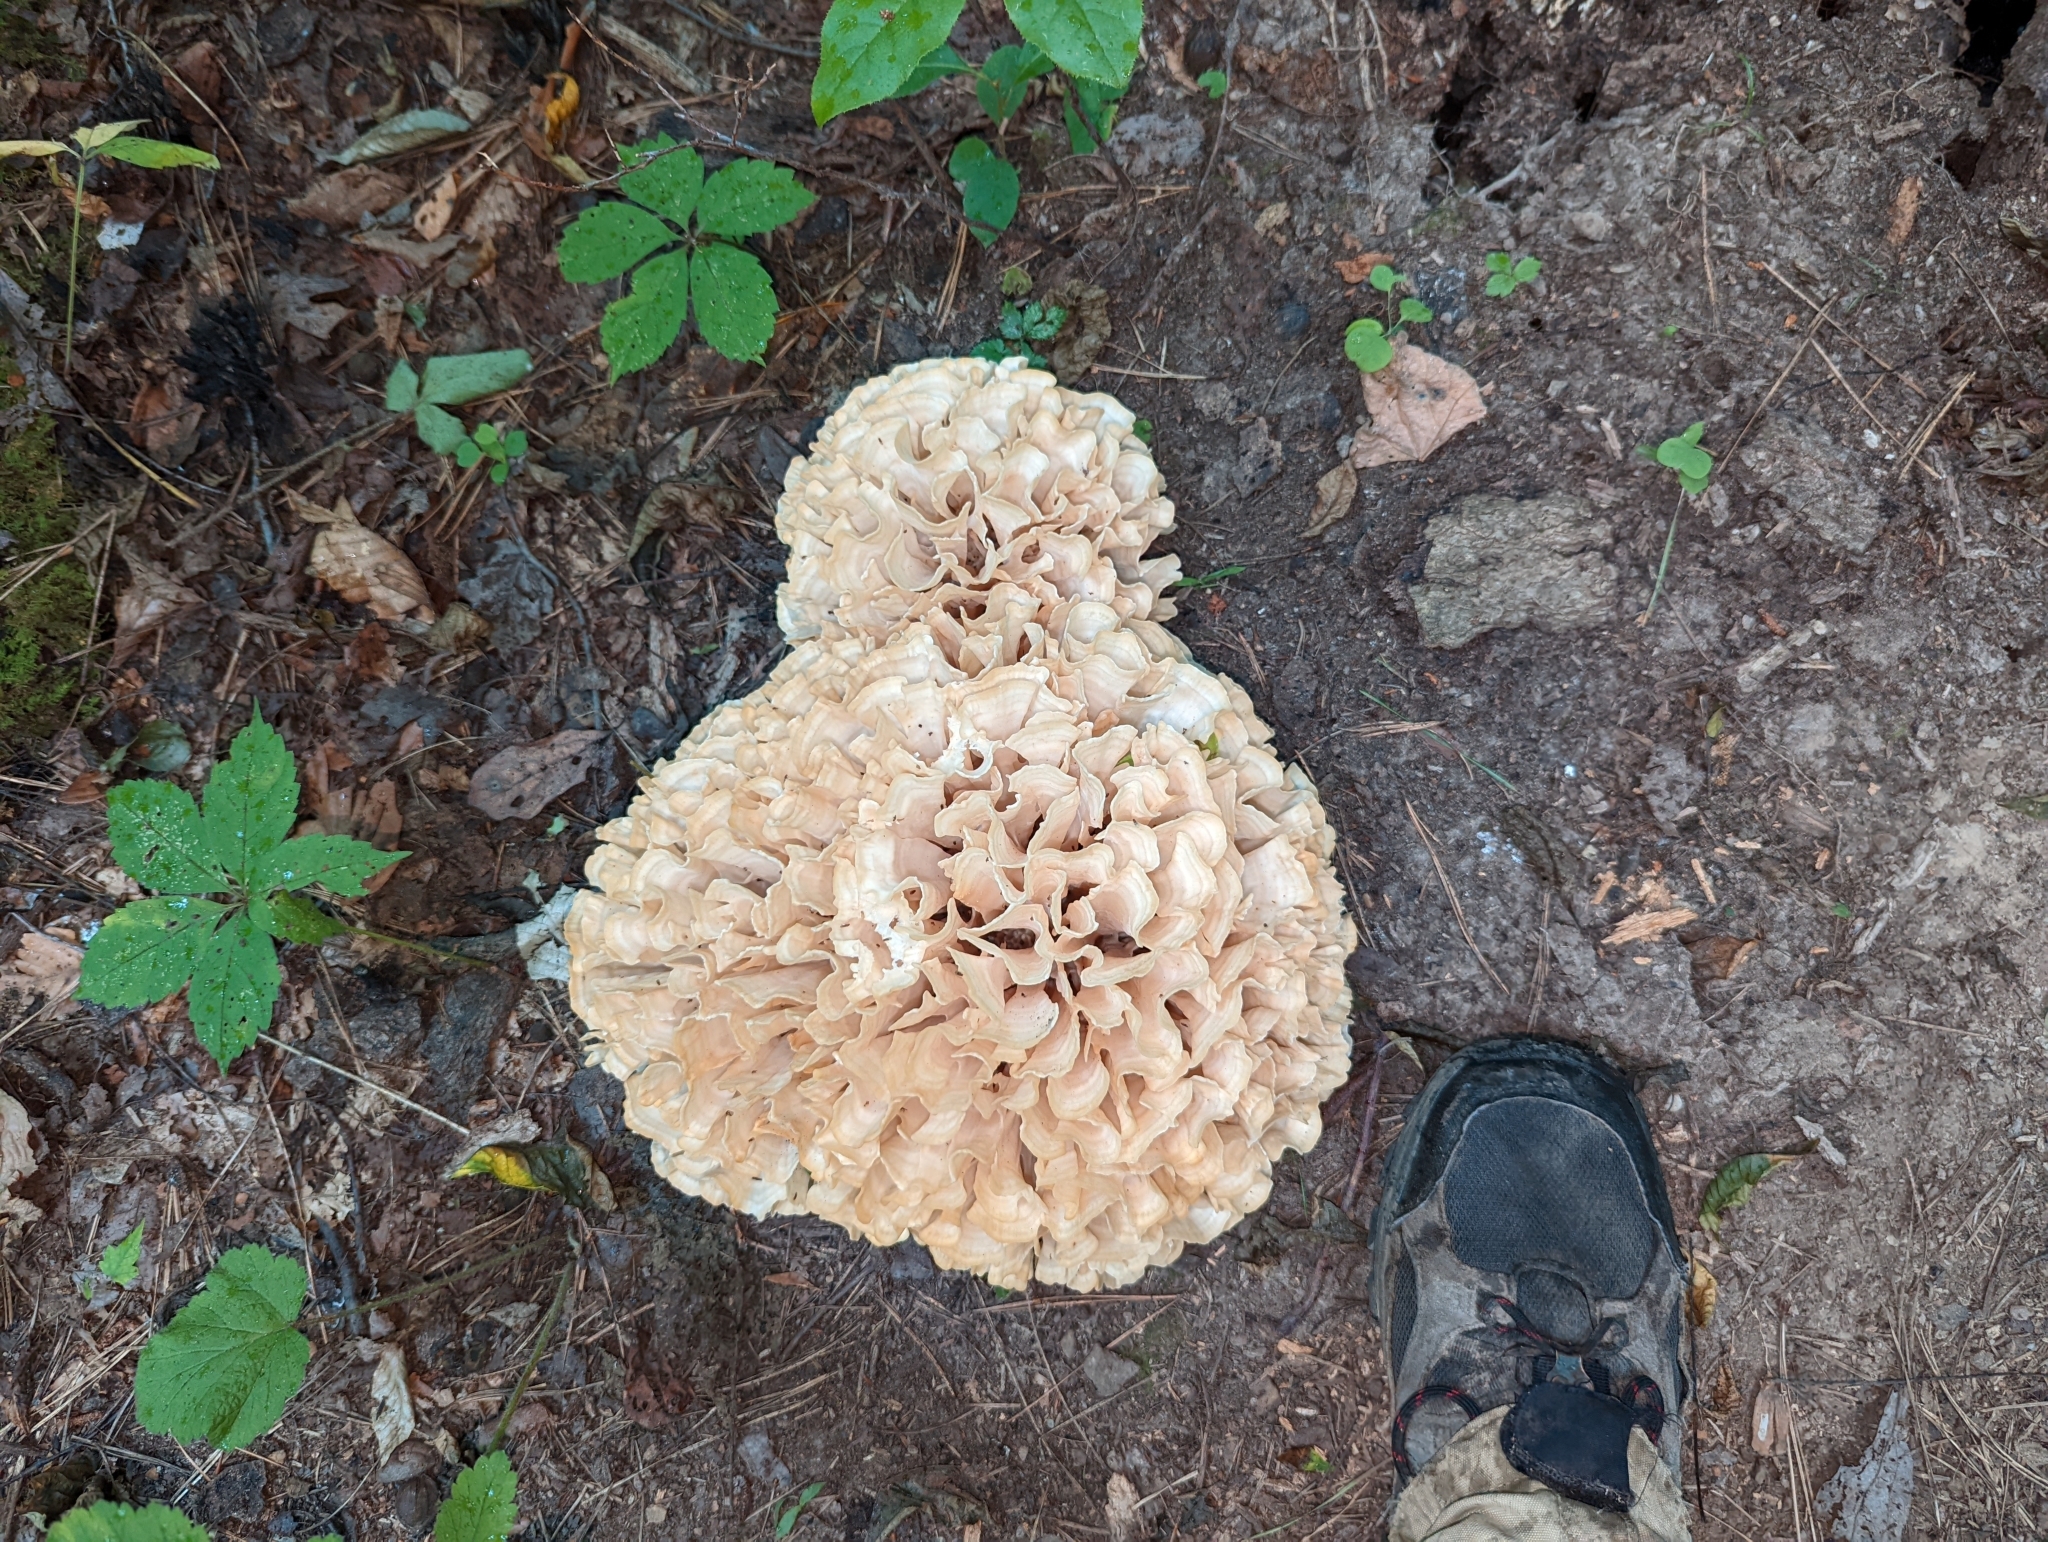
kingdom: Fungi
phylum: Basidiomycota
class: Agaricomycetes
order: Polyporales
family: Sparassidaceae
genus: Sparassis
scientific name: Sparassis spathulata
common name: Eastern cauliflower mushroom
